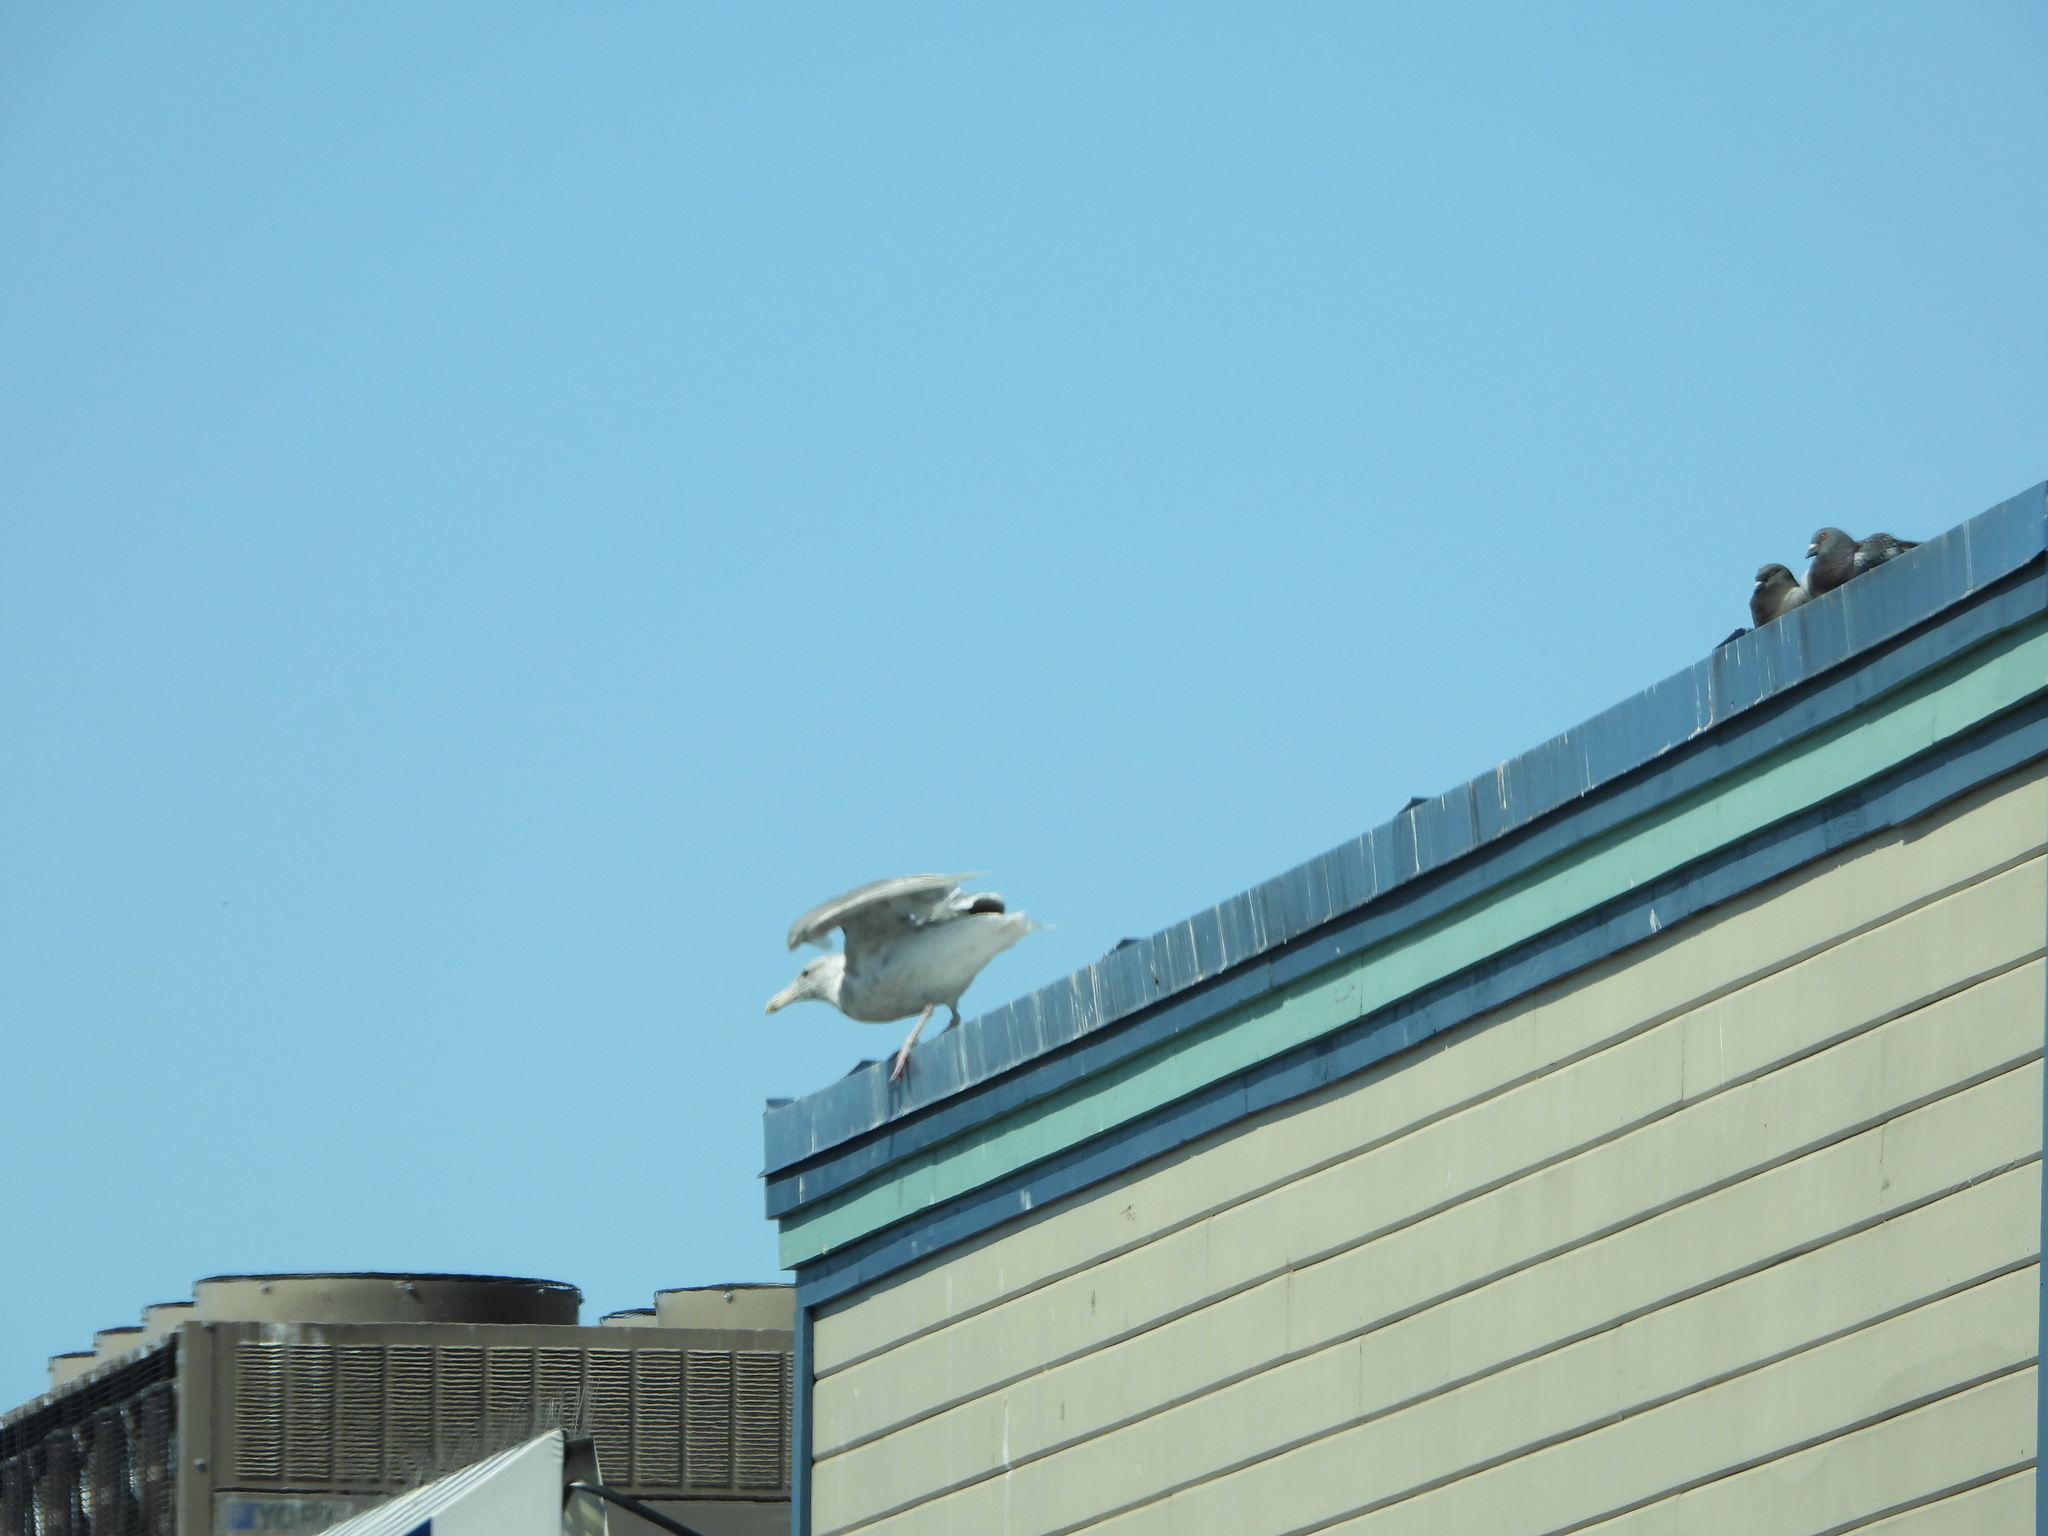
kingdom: Animalia
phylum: Chordata
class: Aves
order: Charadriiformes
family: Laridae
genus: Larus
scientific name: Larus
